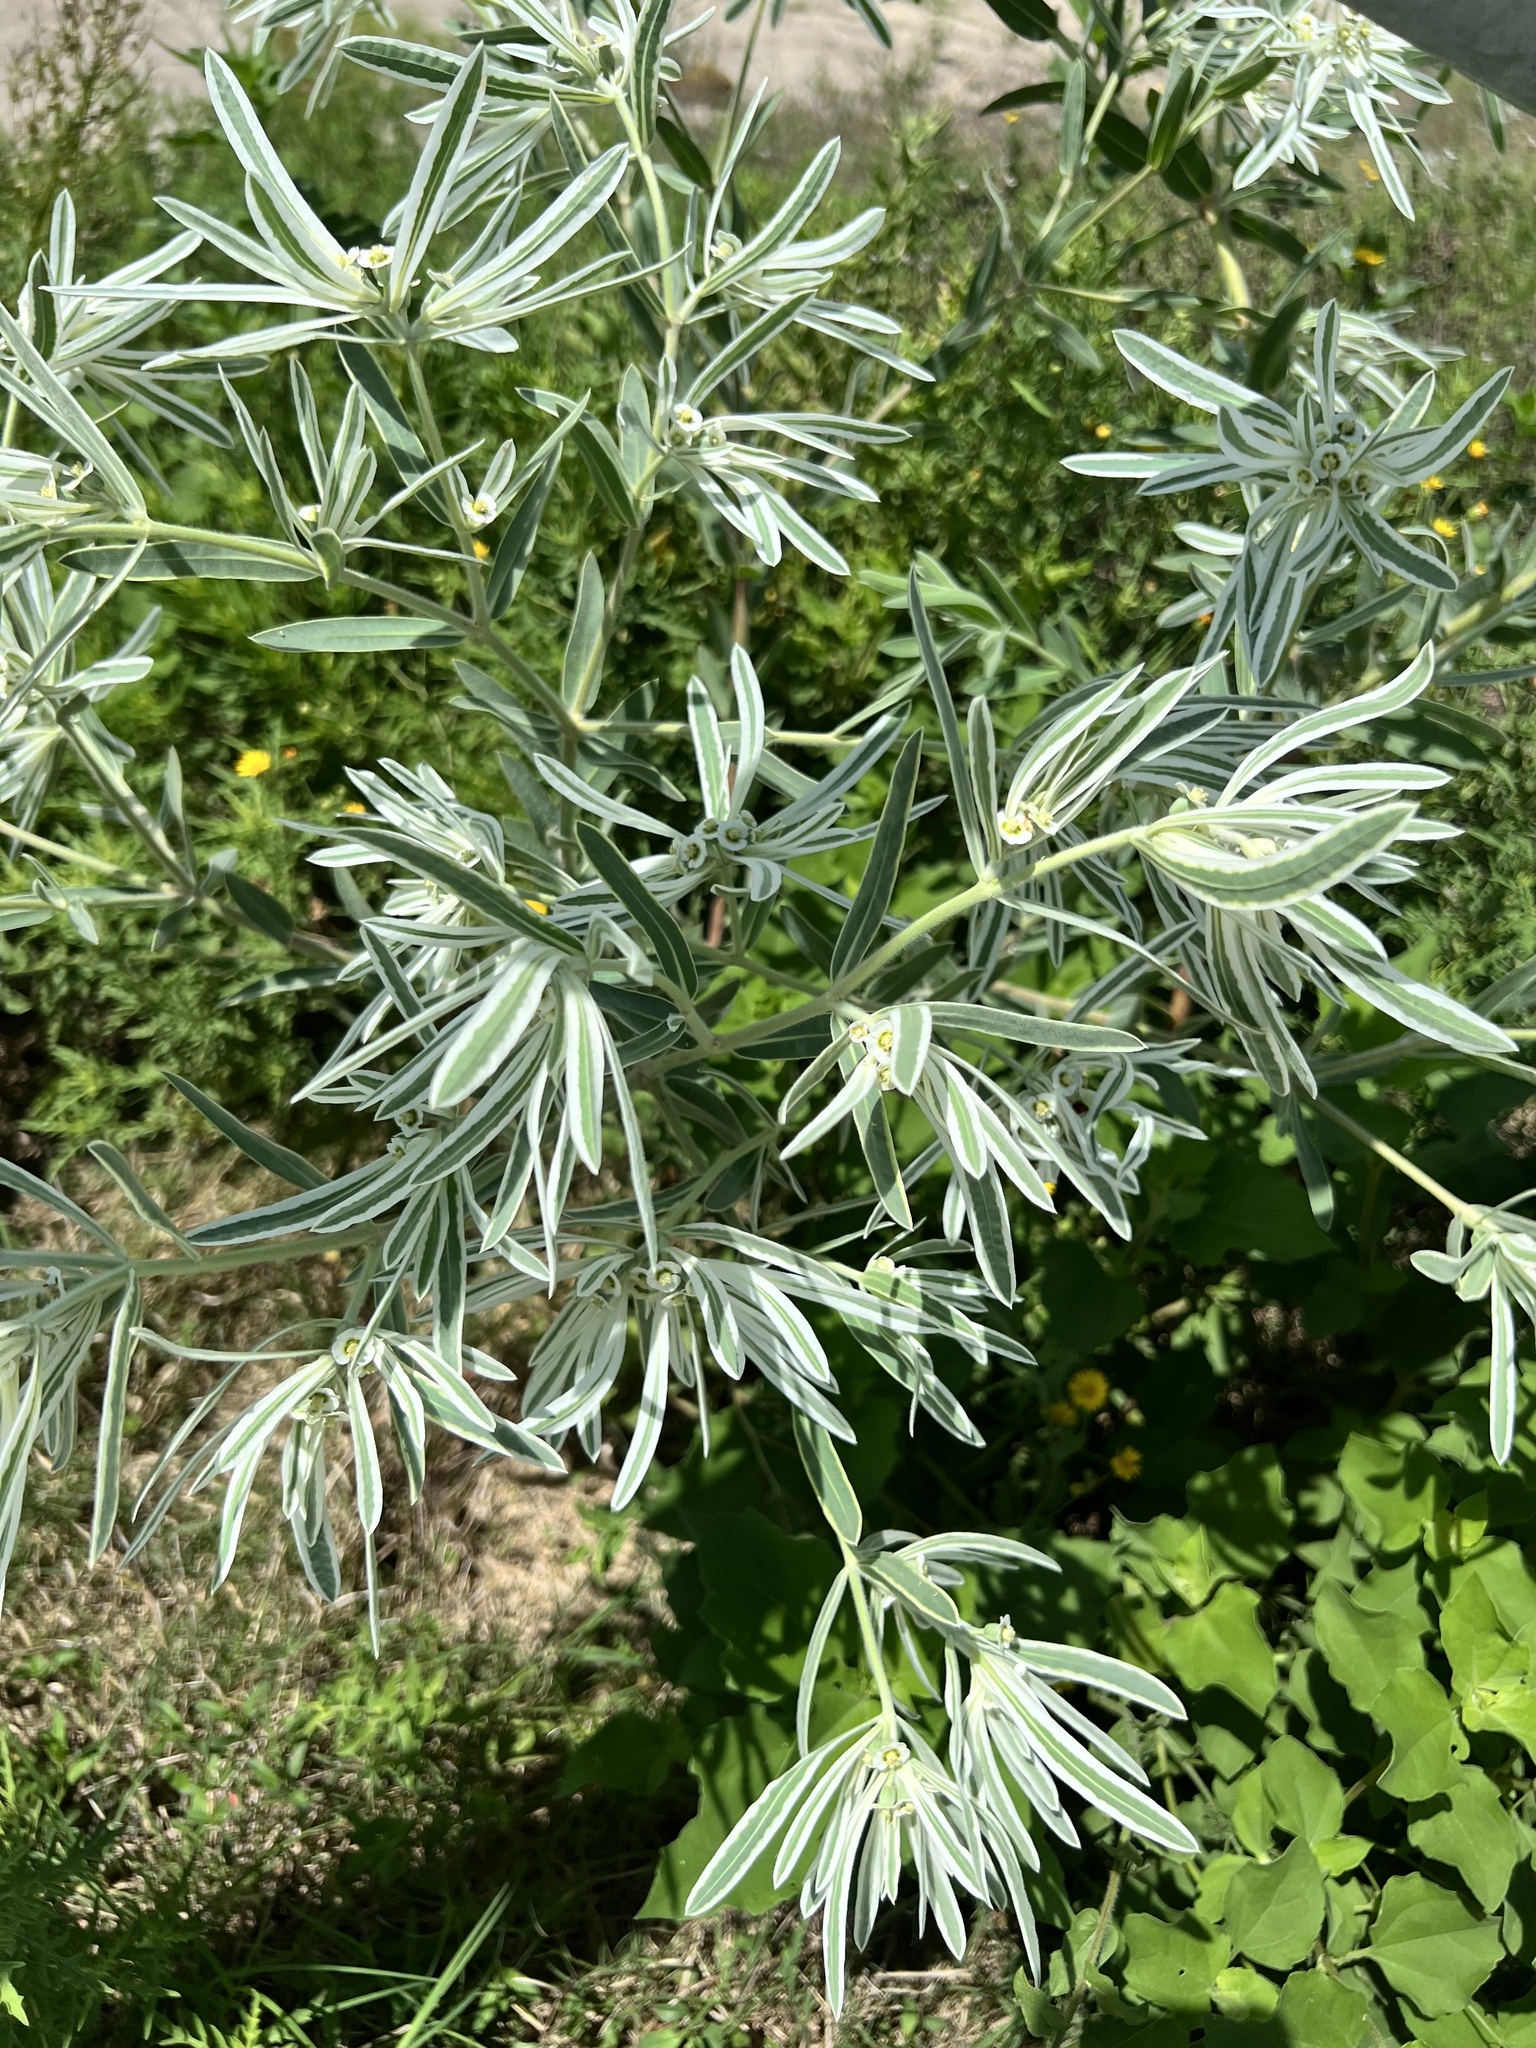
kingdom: Plantae
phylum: Tracheophyta
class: Magnoliopsida
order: Malpighiales
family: Euphorbiaceae
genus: Euphorbia
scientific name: Euphorbia bicolor
